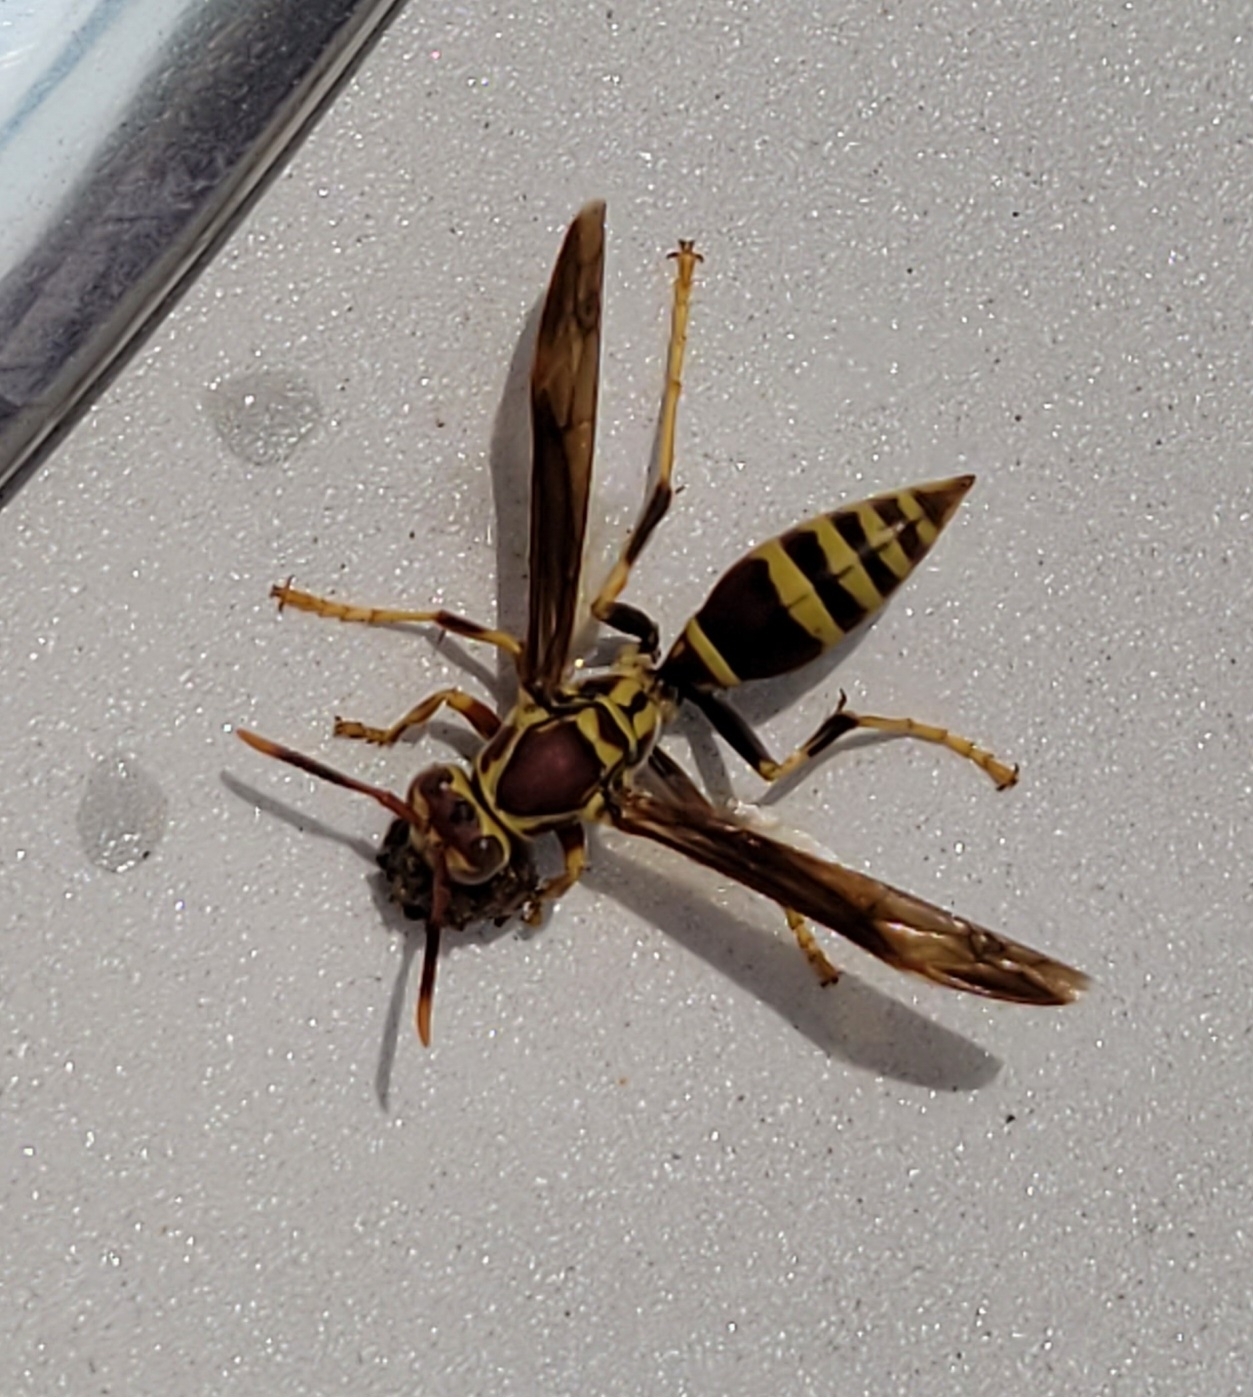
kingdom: Animalia
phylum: Arthropoda
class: Insecta
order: Hymenoptera
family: Eumenidae
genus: Polistes
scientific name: Polistes exclamans
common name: Paper wasp
